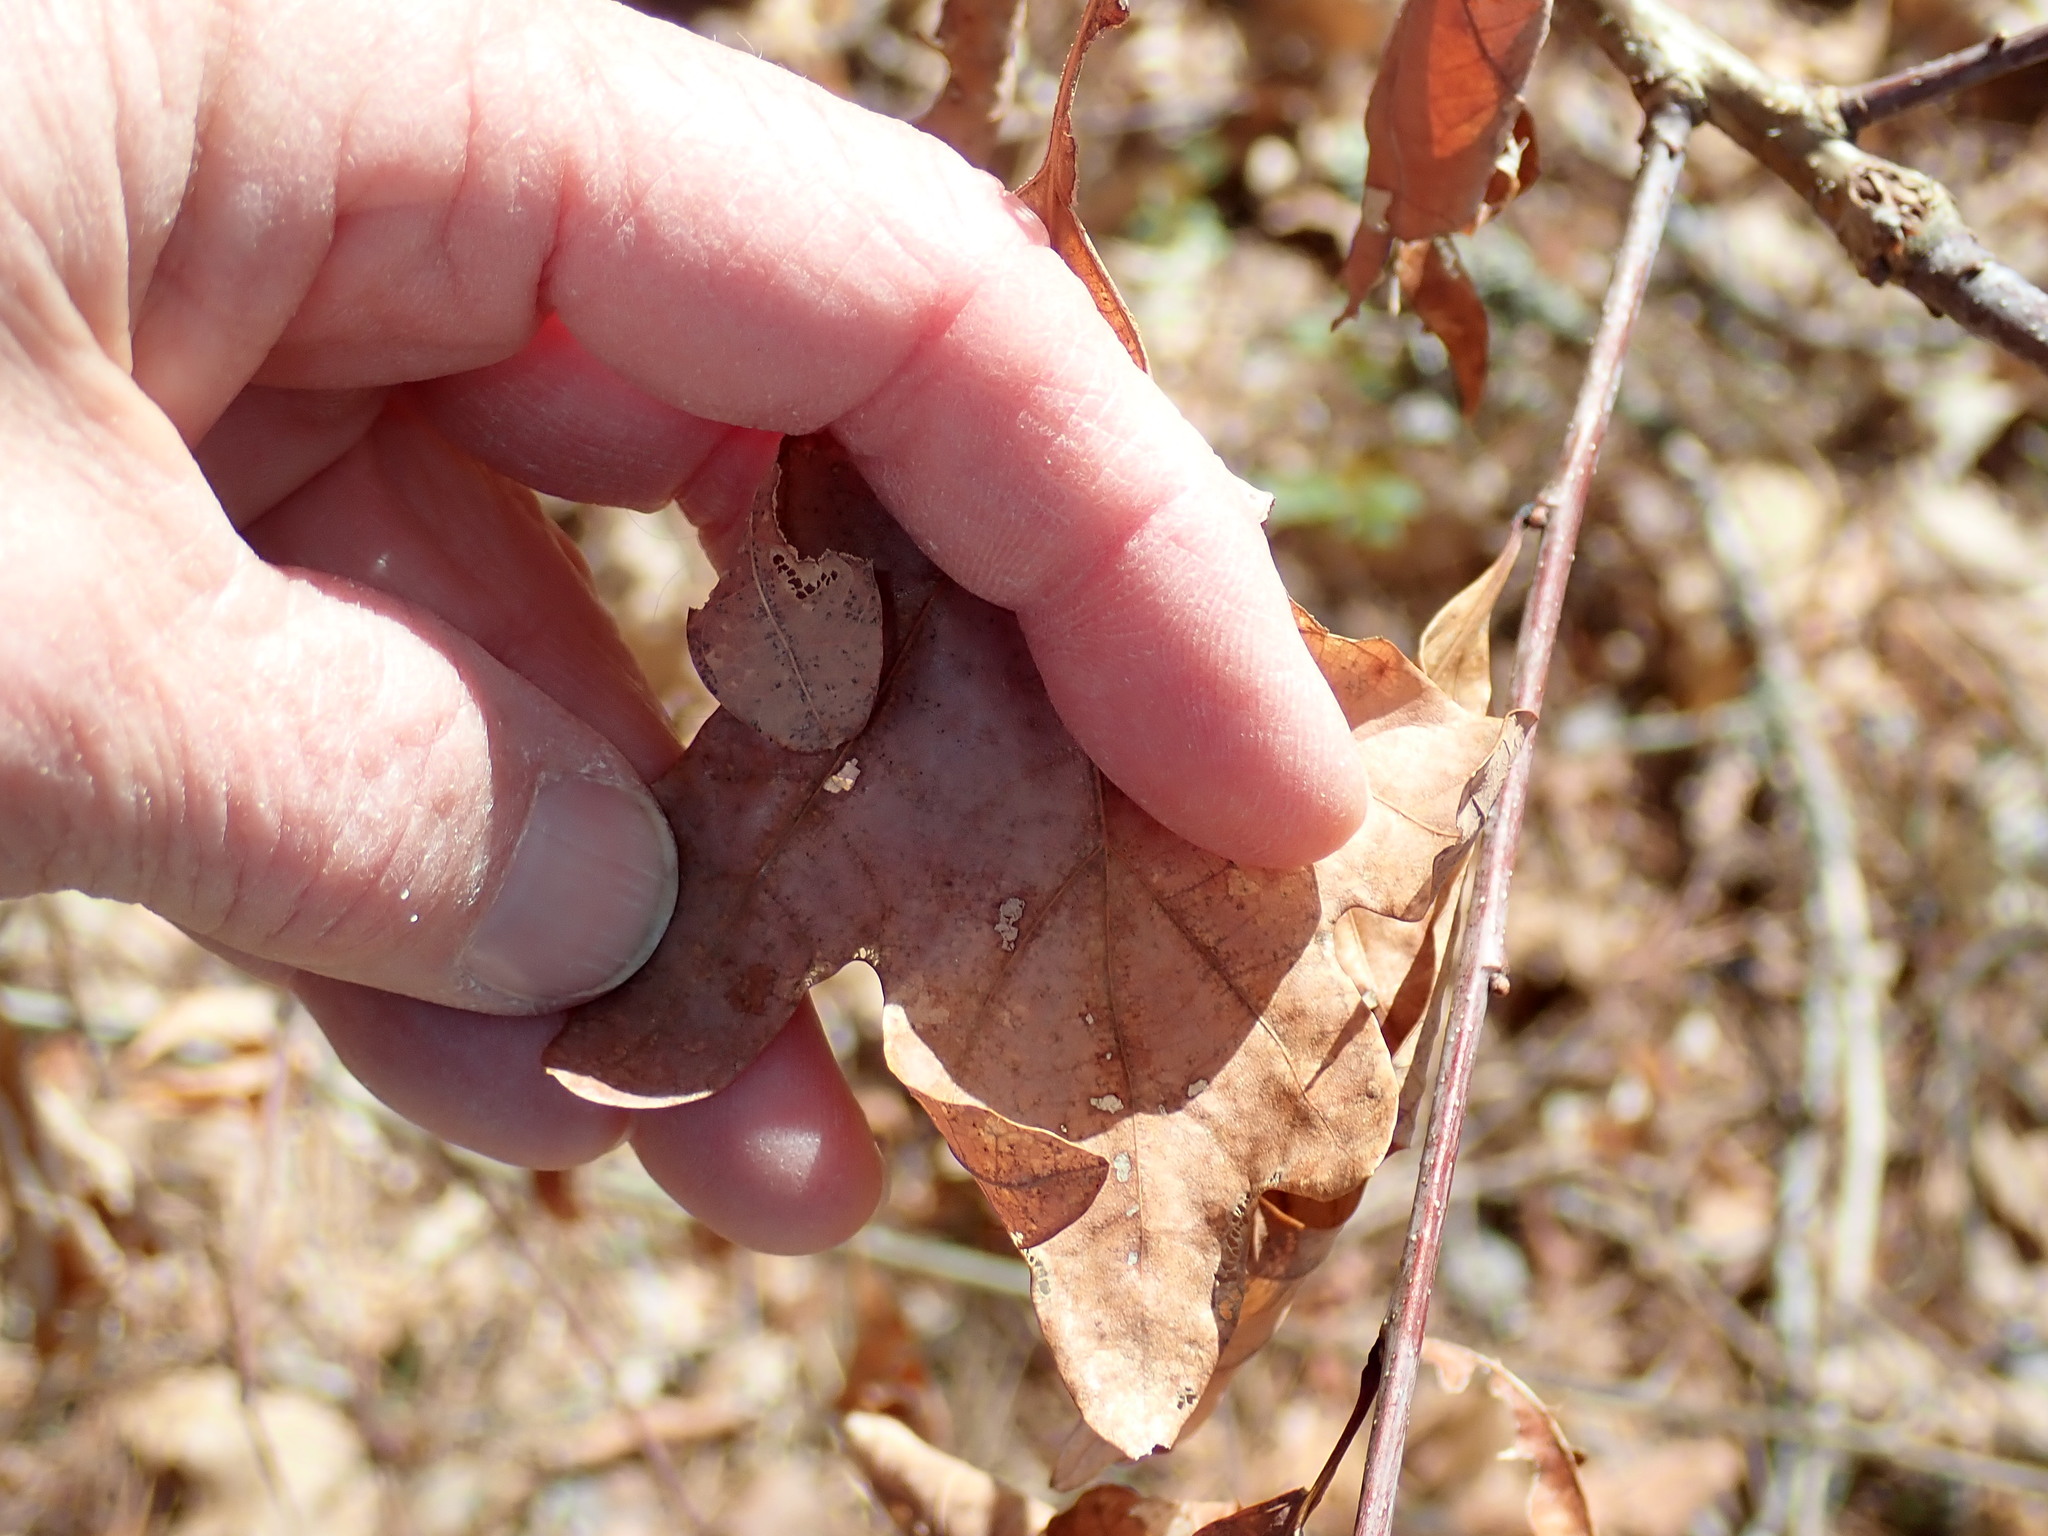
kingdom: Plantae
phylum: Tracheophyta
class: Magnoliopsida
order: Fagales
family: Fagaceae
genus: Quercus
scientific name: Quercus alba
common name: White oak
